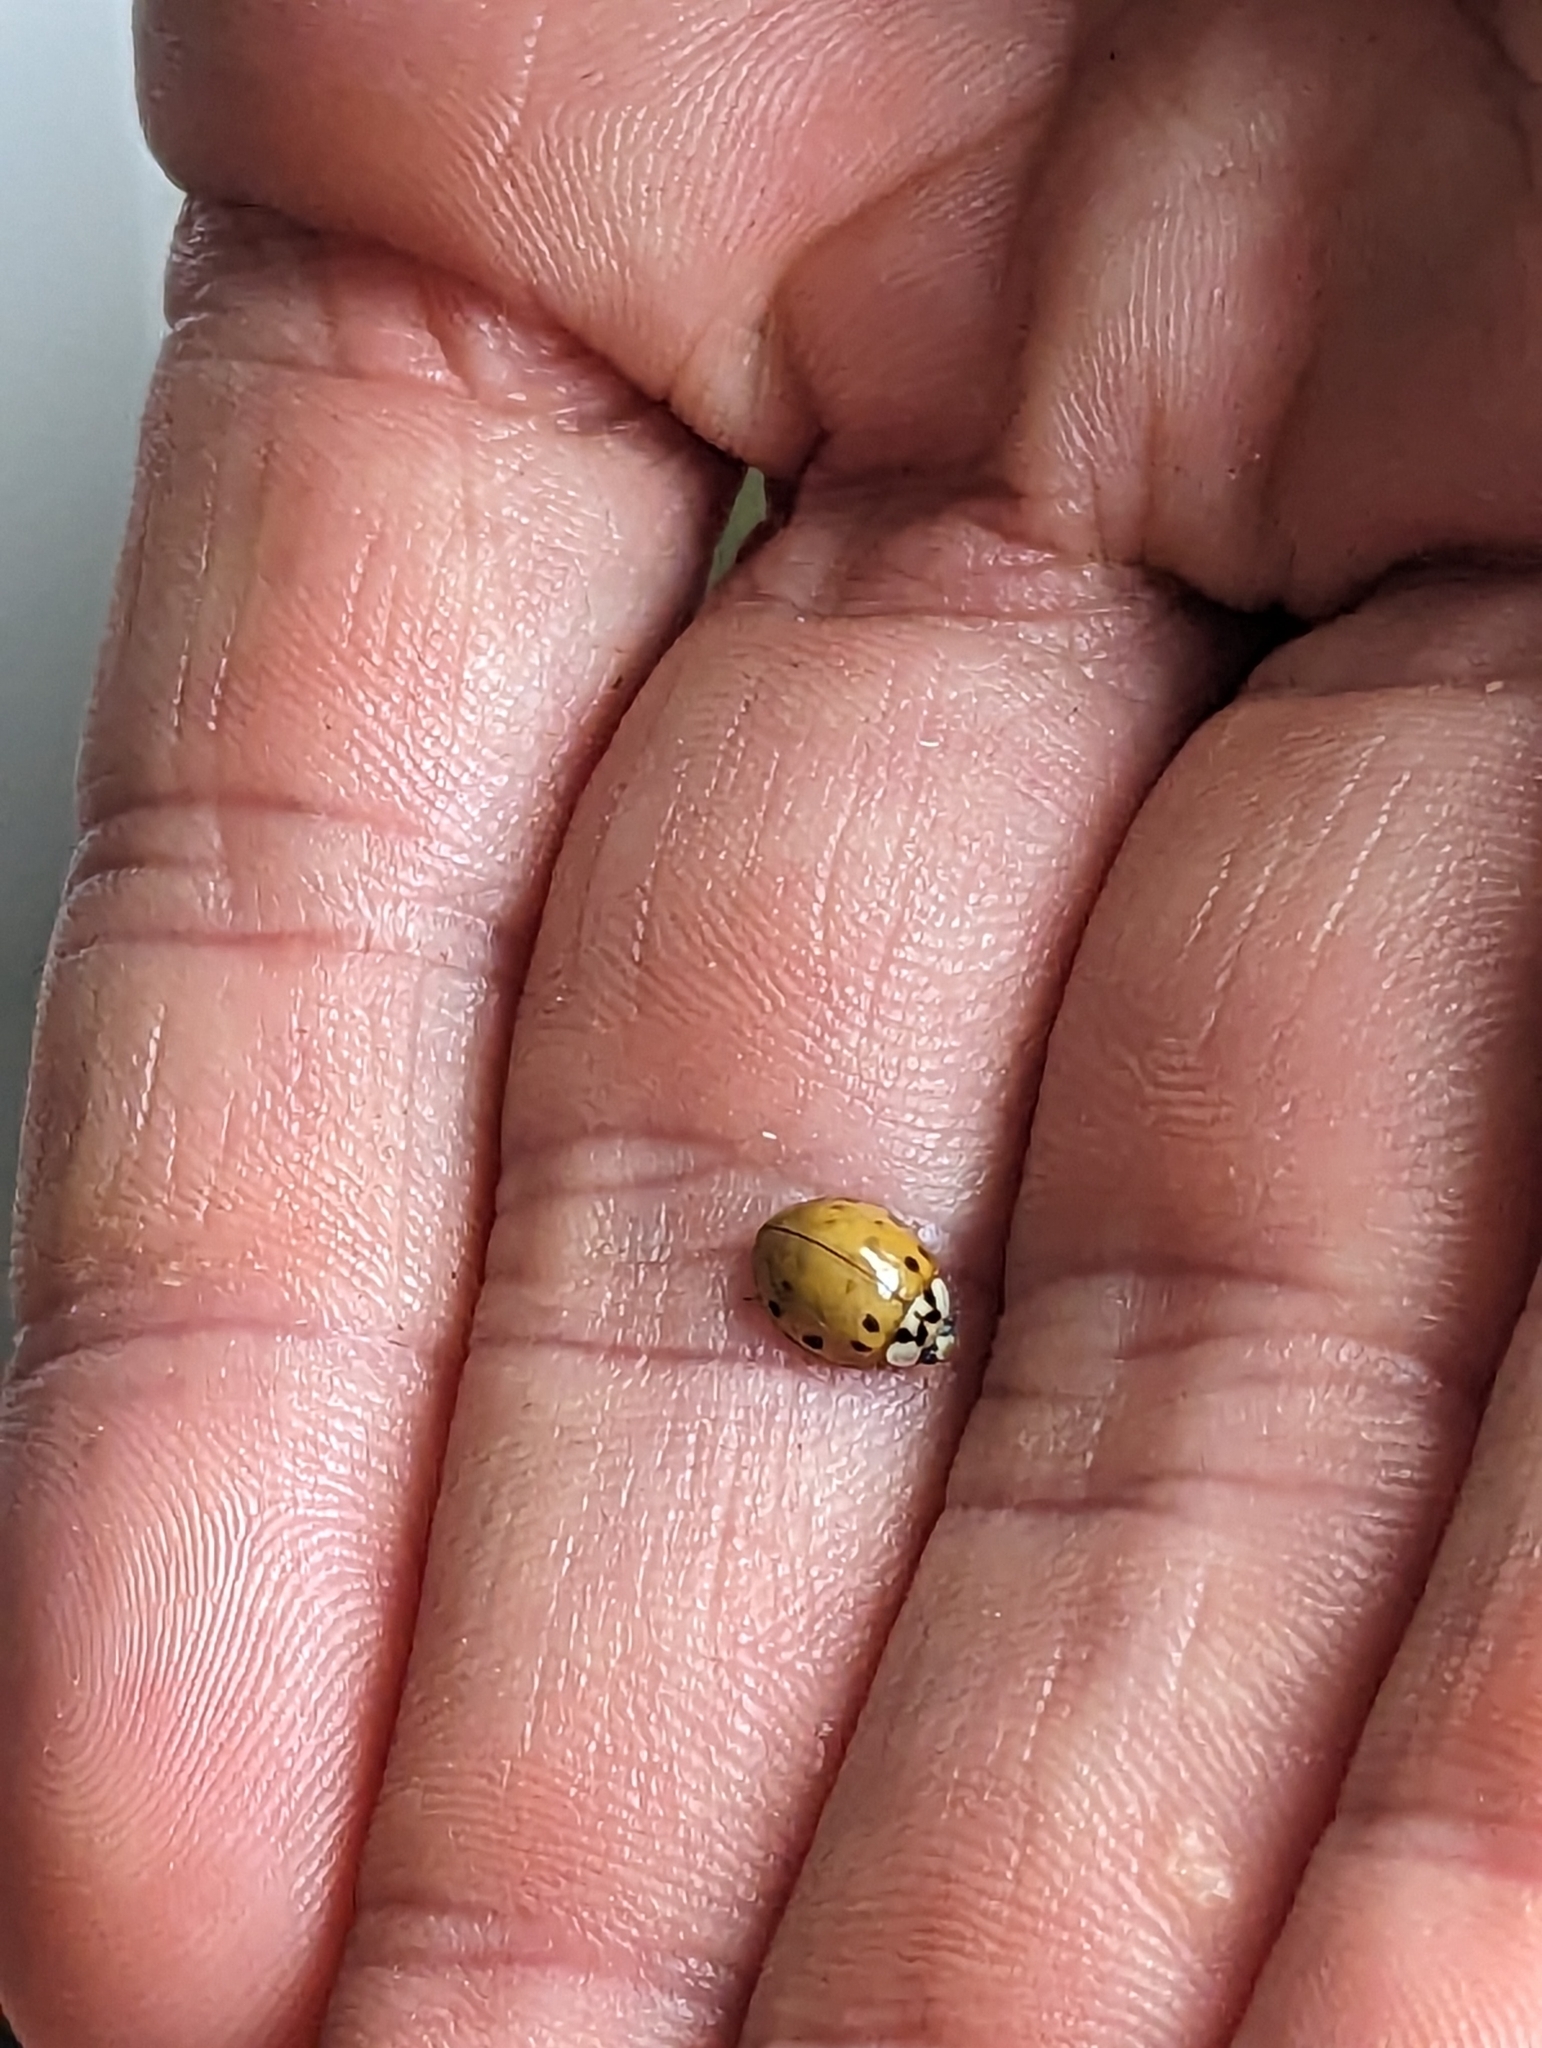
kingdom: Animalia
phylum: Arthropoda
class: Insecta
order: Coleoptera
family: Coccinellidae
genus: Harmonia
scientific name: Harmonia axyridis
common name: Harlequin ladybird
